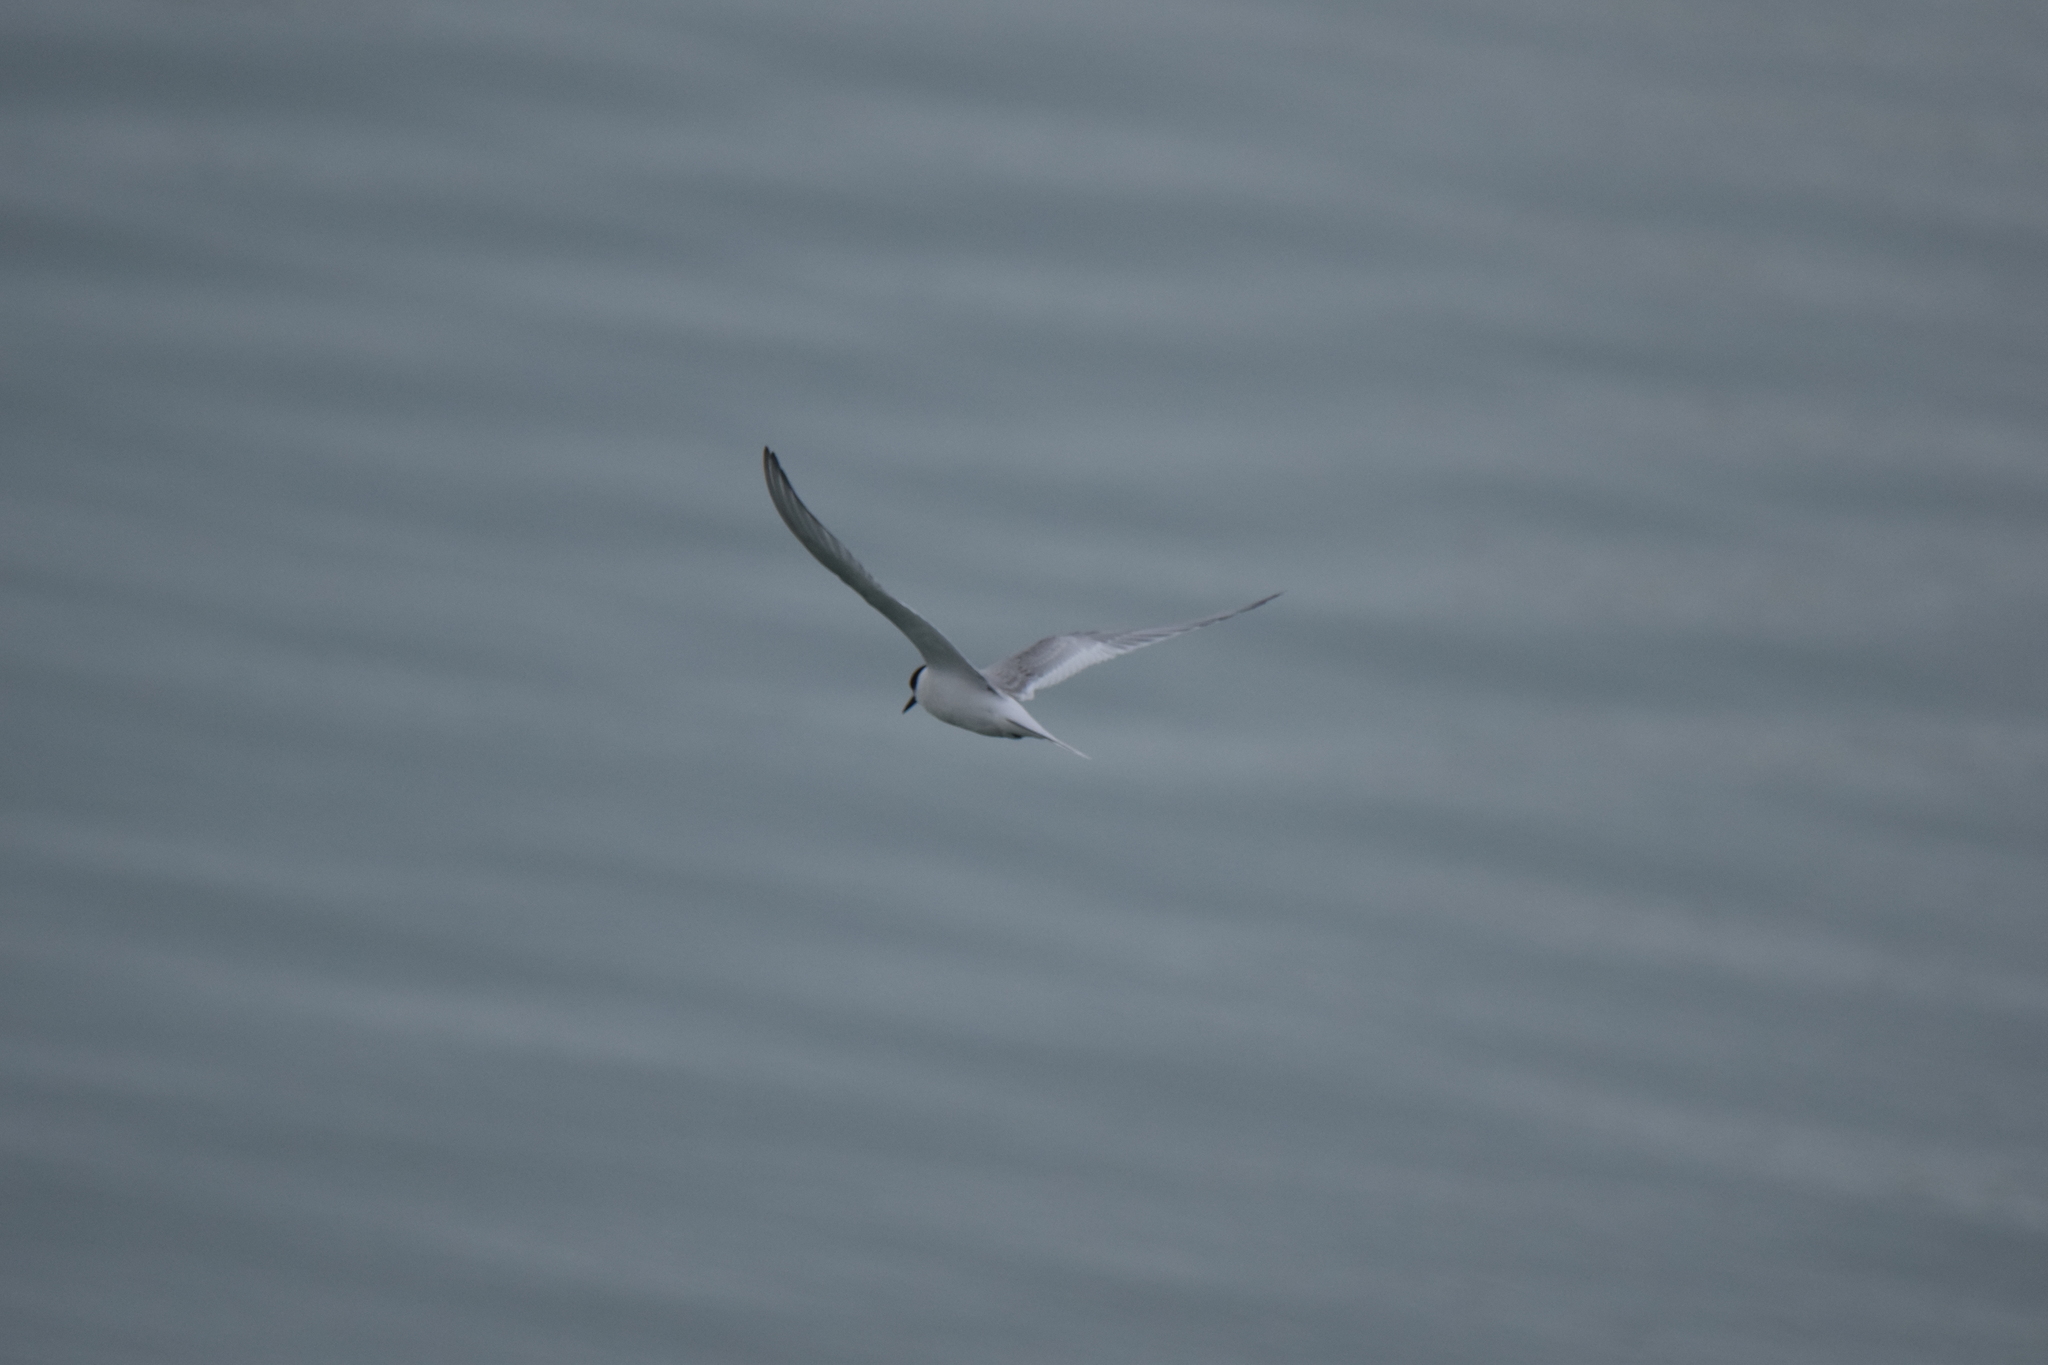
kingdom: Animalia
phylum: Chordata
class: Aves
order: Charadriiformes
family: Laridae
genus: Sterna
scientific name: Sterna paradisaea
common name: Arctic tern
